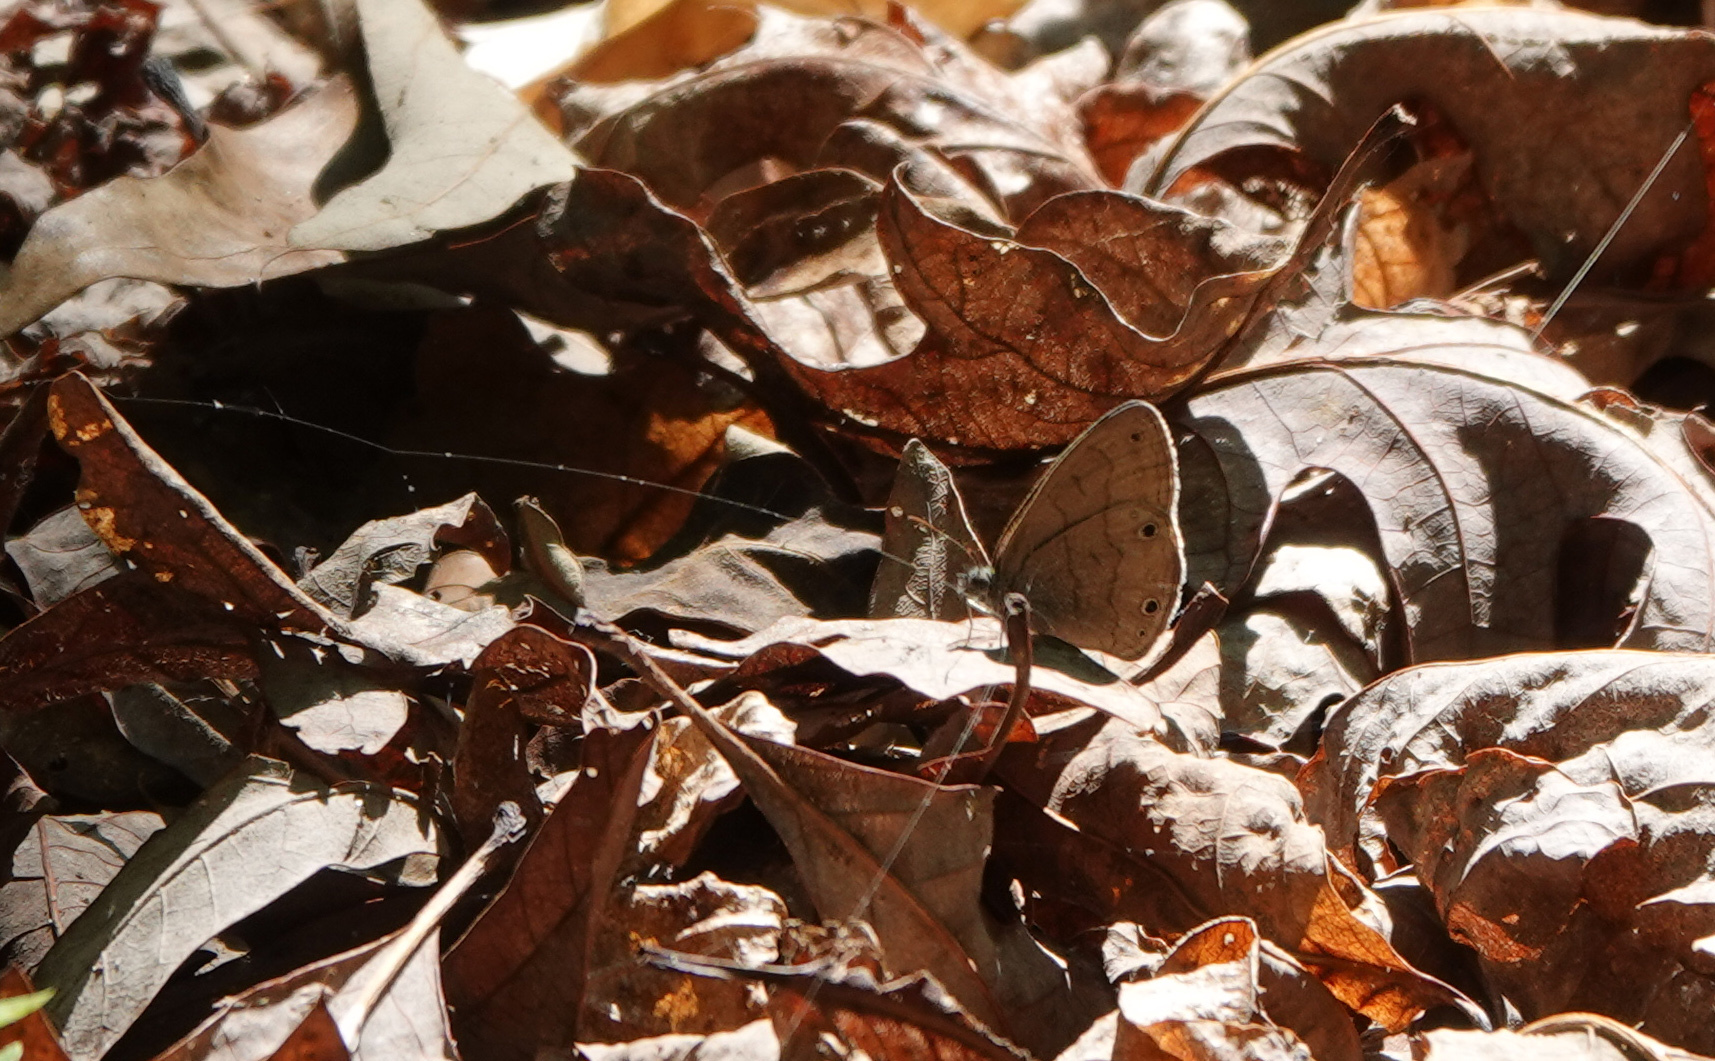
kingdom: Animalia
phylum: Arthropoda
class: Insecta
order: Lepidoptera
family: Nymphalidae
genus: Hermeuptychia
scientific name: Hermeuptychia hermes
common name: Hermes satyr
